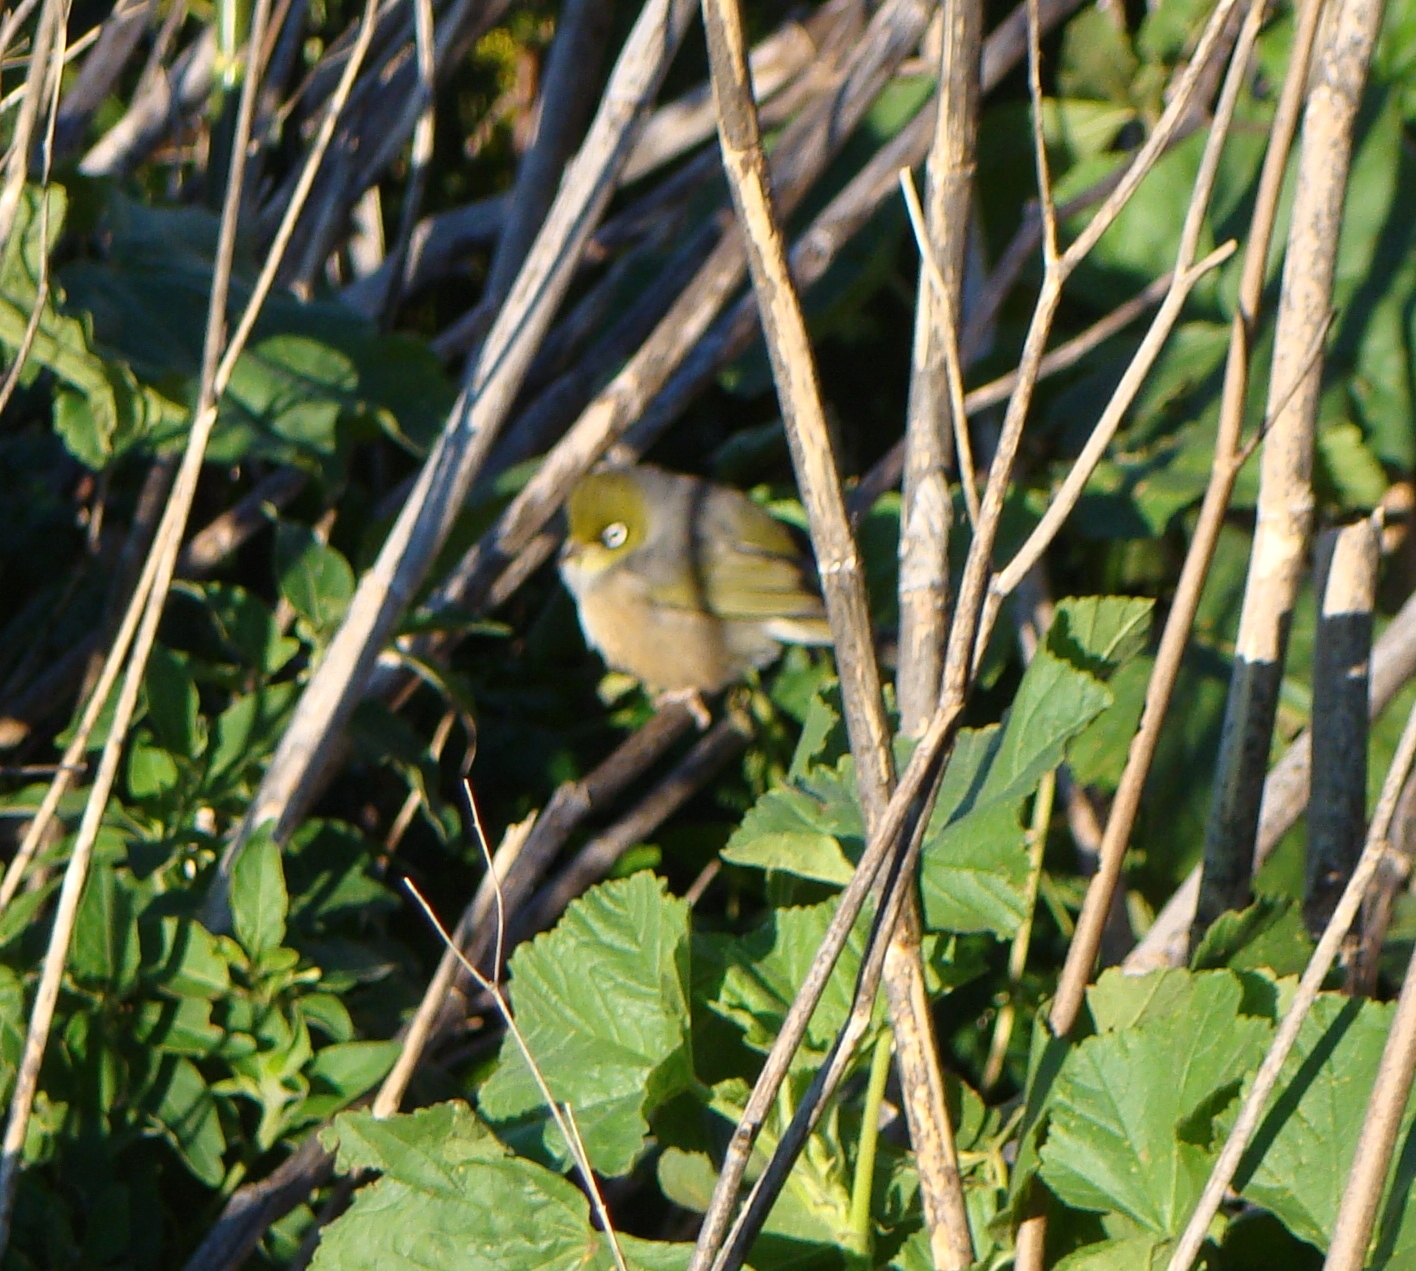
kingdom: Animalia
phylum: Chordata
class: Aves
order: Passeriformes
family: Zosteropidae
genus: Zosterops
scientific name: Zosterops lateralis
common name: Silvereye
